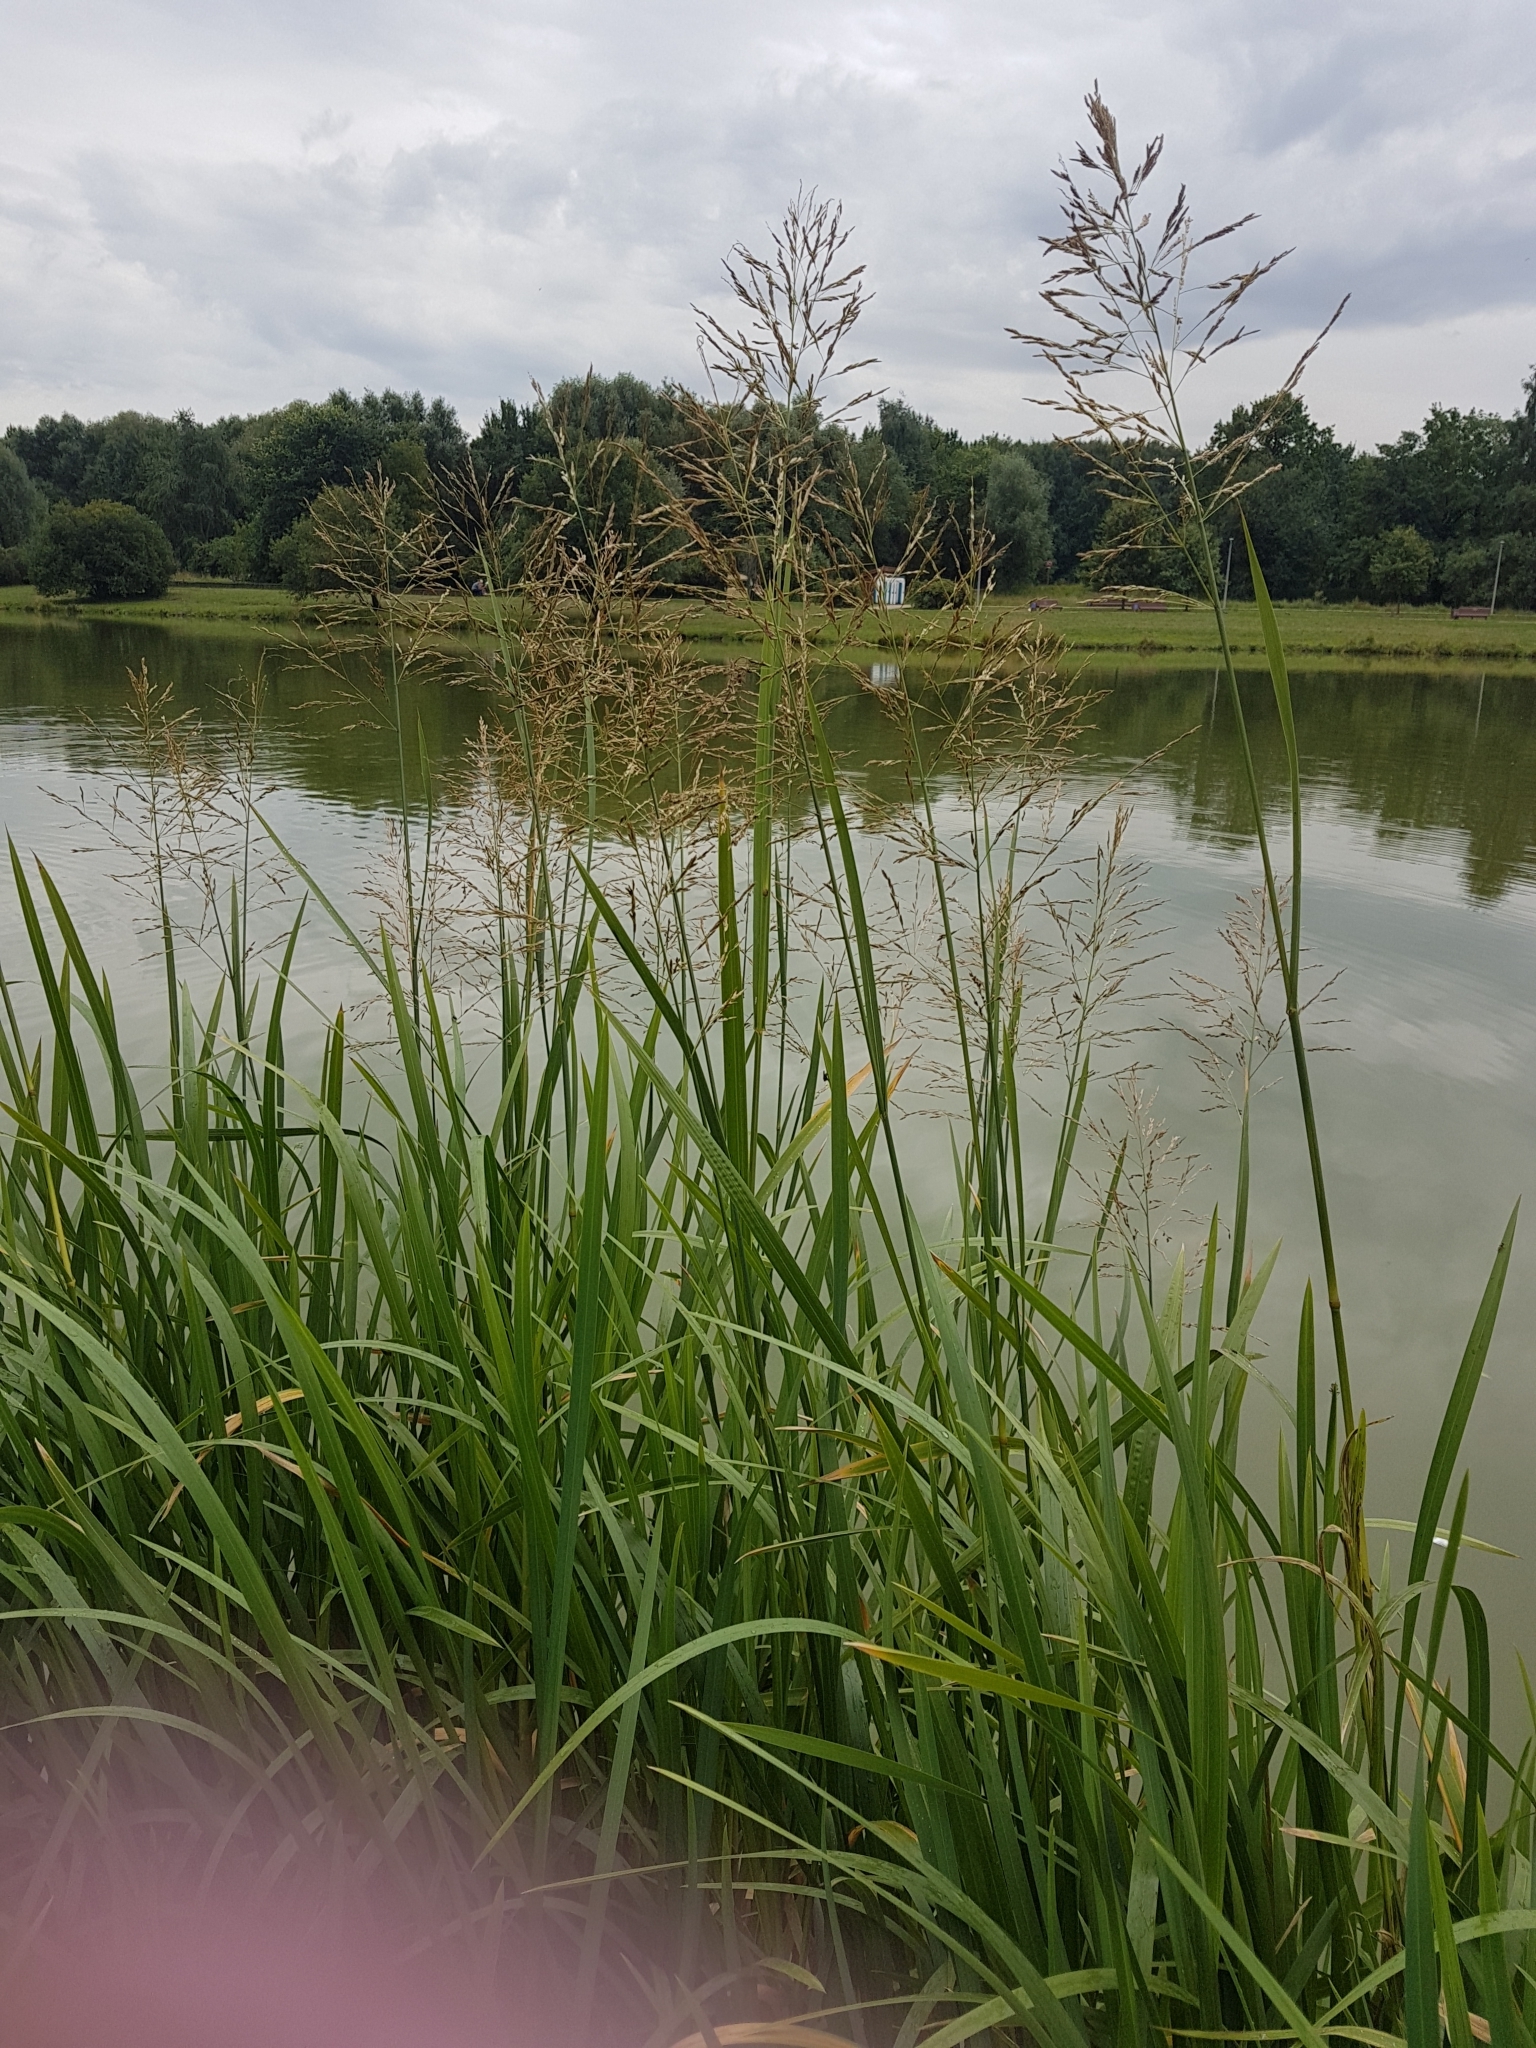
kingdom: Plantae
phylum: Tracheophyta
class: Liliopsida
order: Poales
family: Poaceae
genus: Glyceria
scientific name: Glyceria maxima
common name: Reed mannagrass
